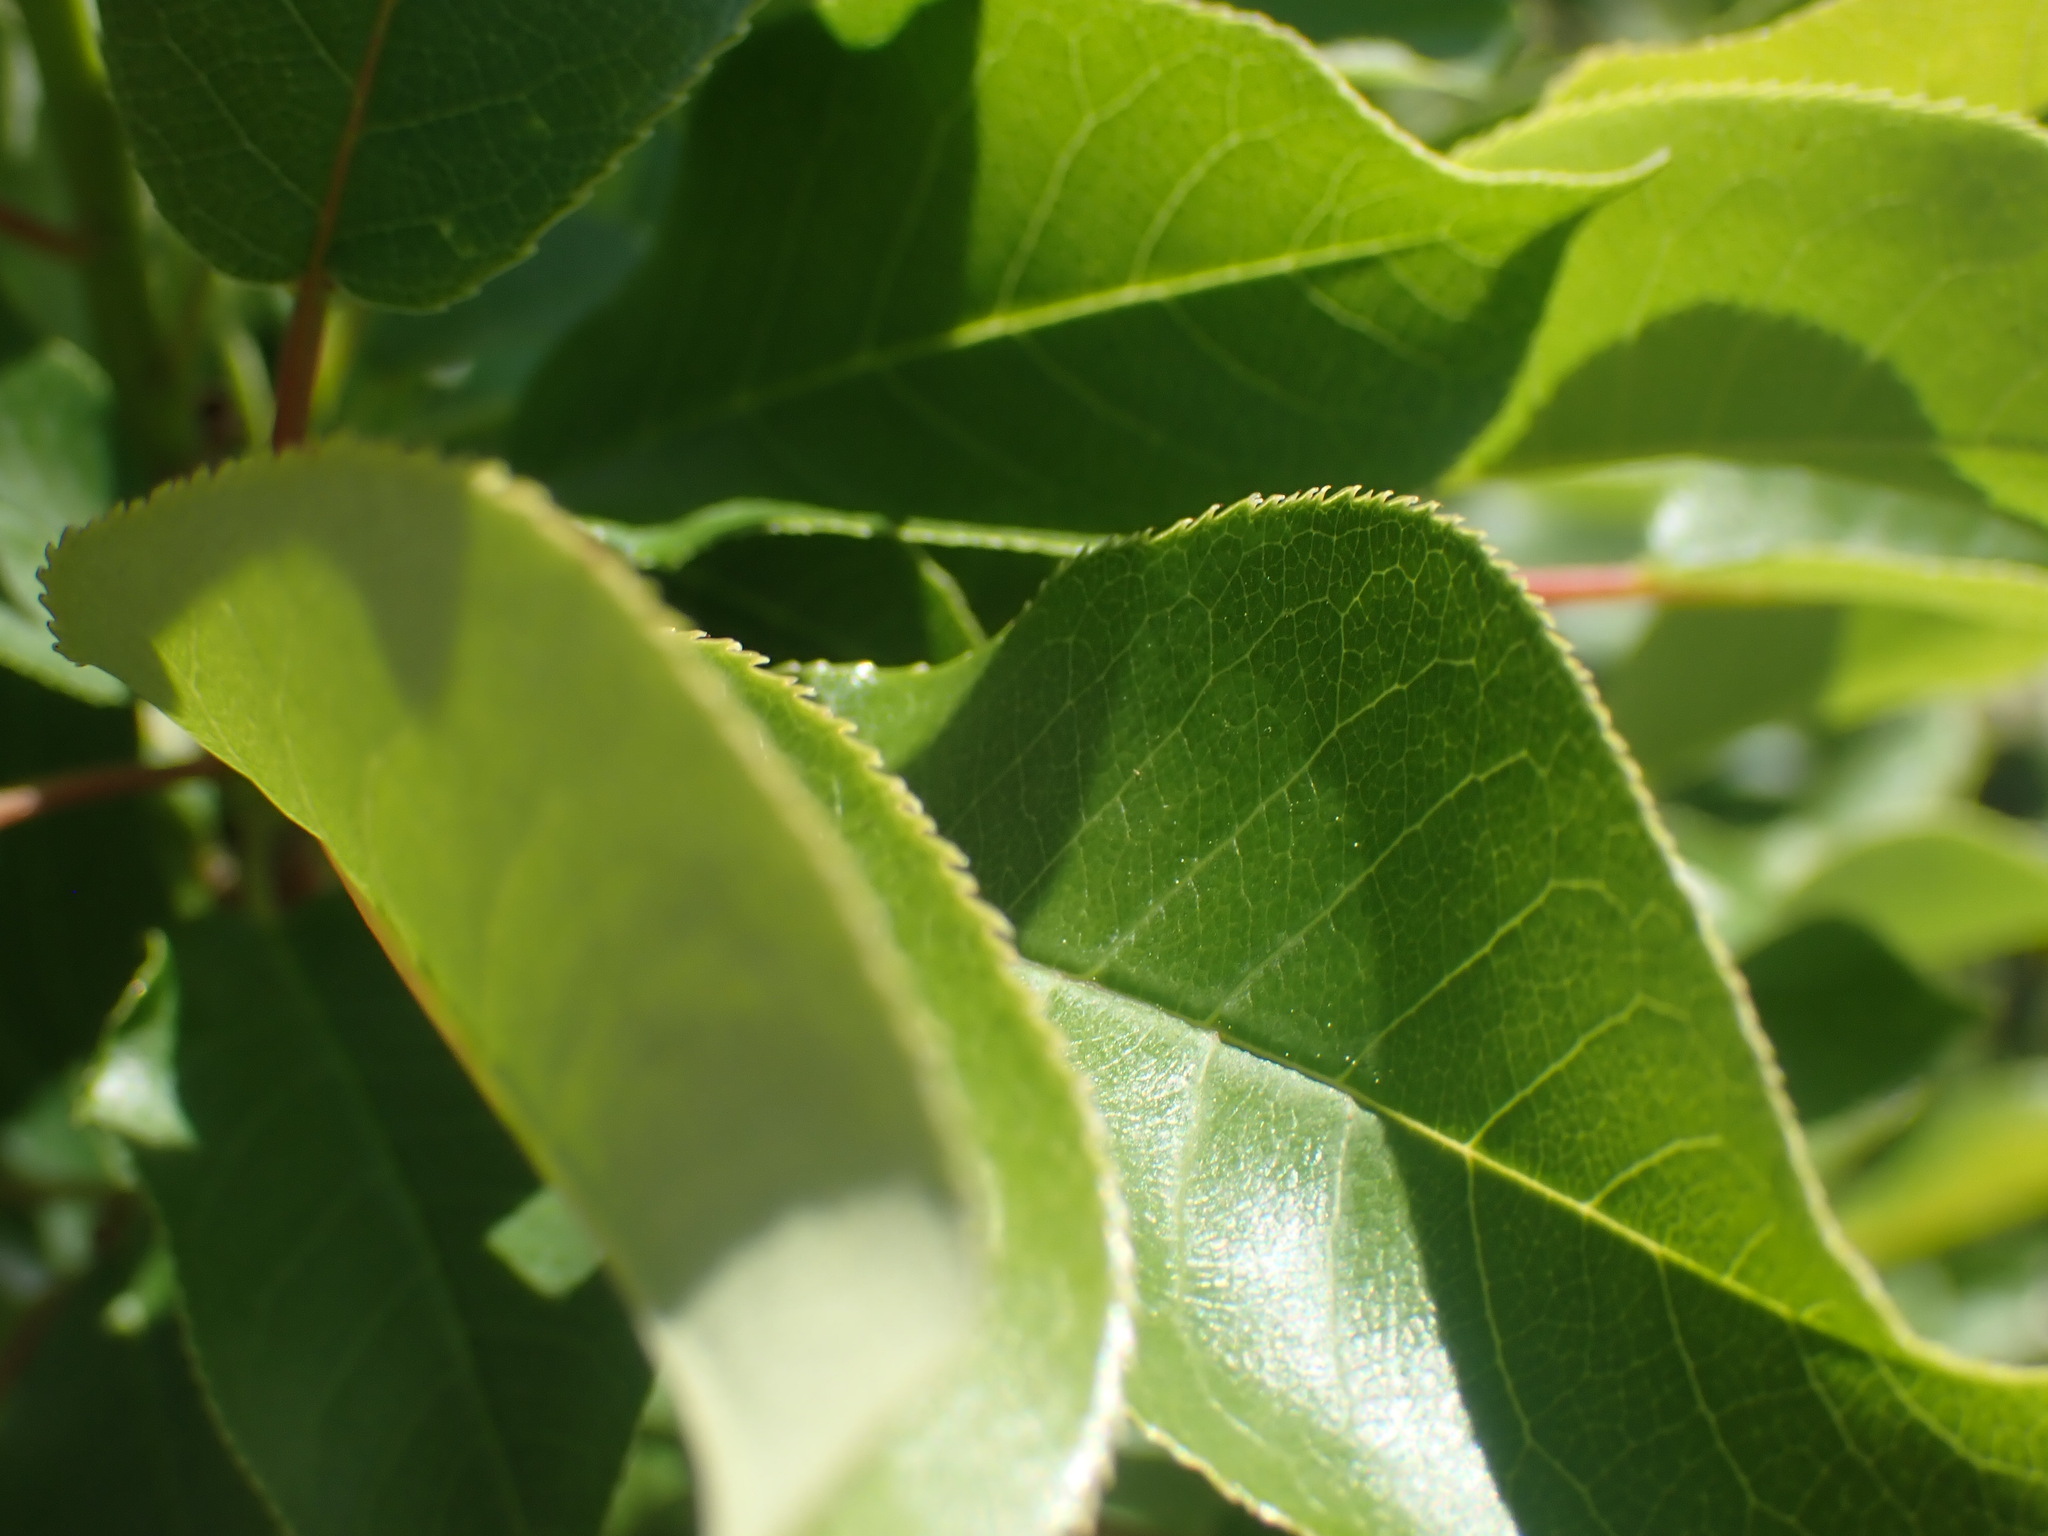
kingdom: Plantae
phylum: Tracheophyta
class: Magnoliopsida
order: Rosales
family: Rosaceae
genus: Prunus
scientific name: Prunus virginiana
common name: Chokecherry
